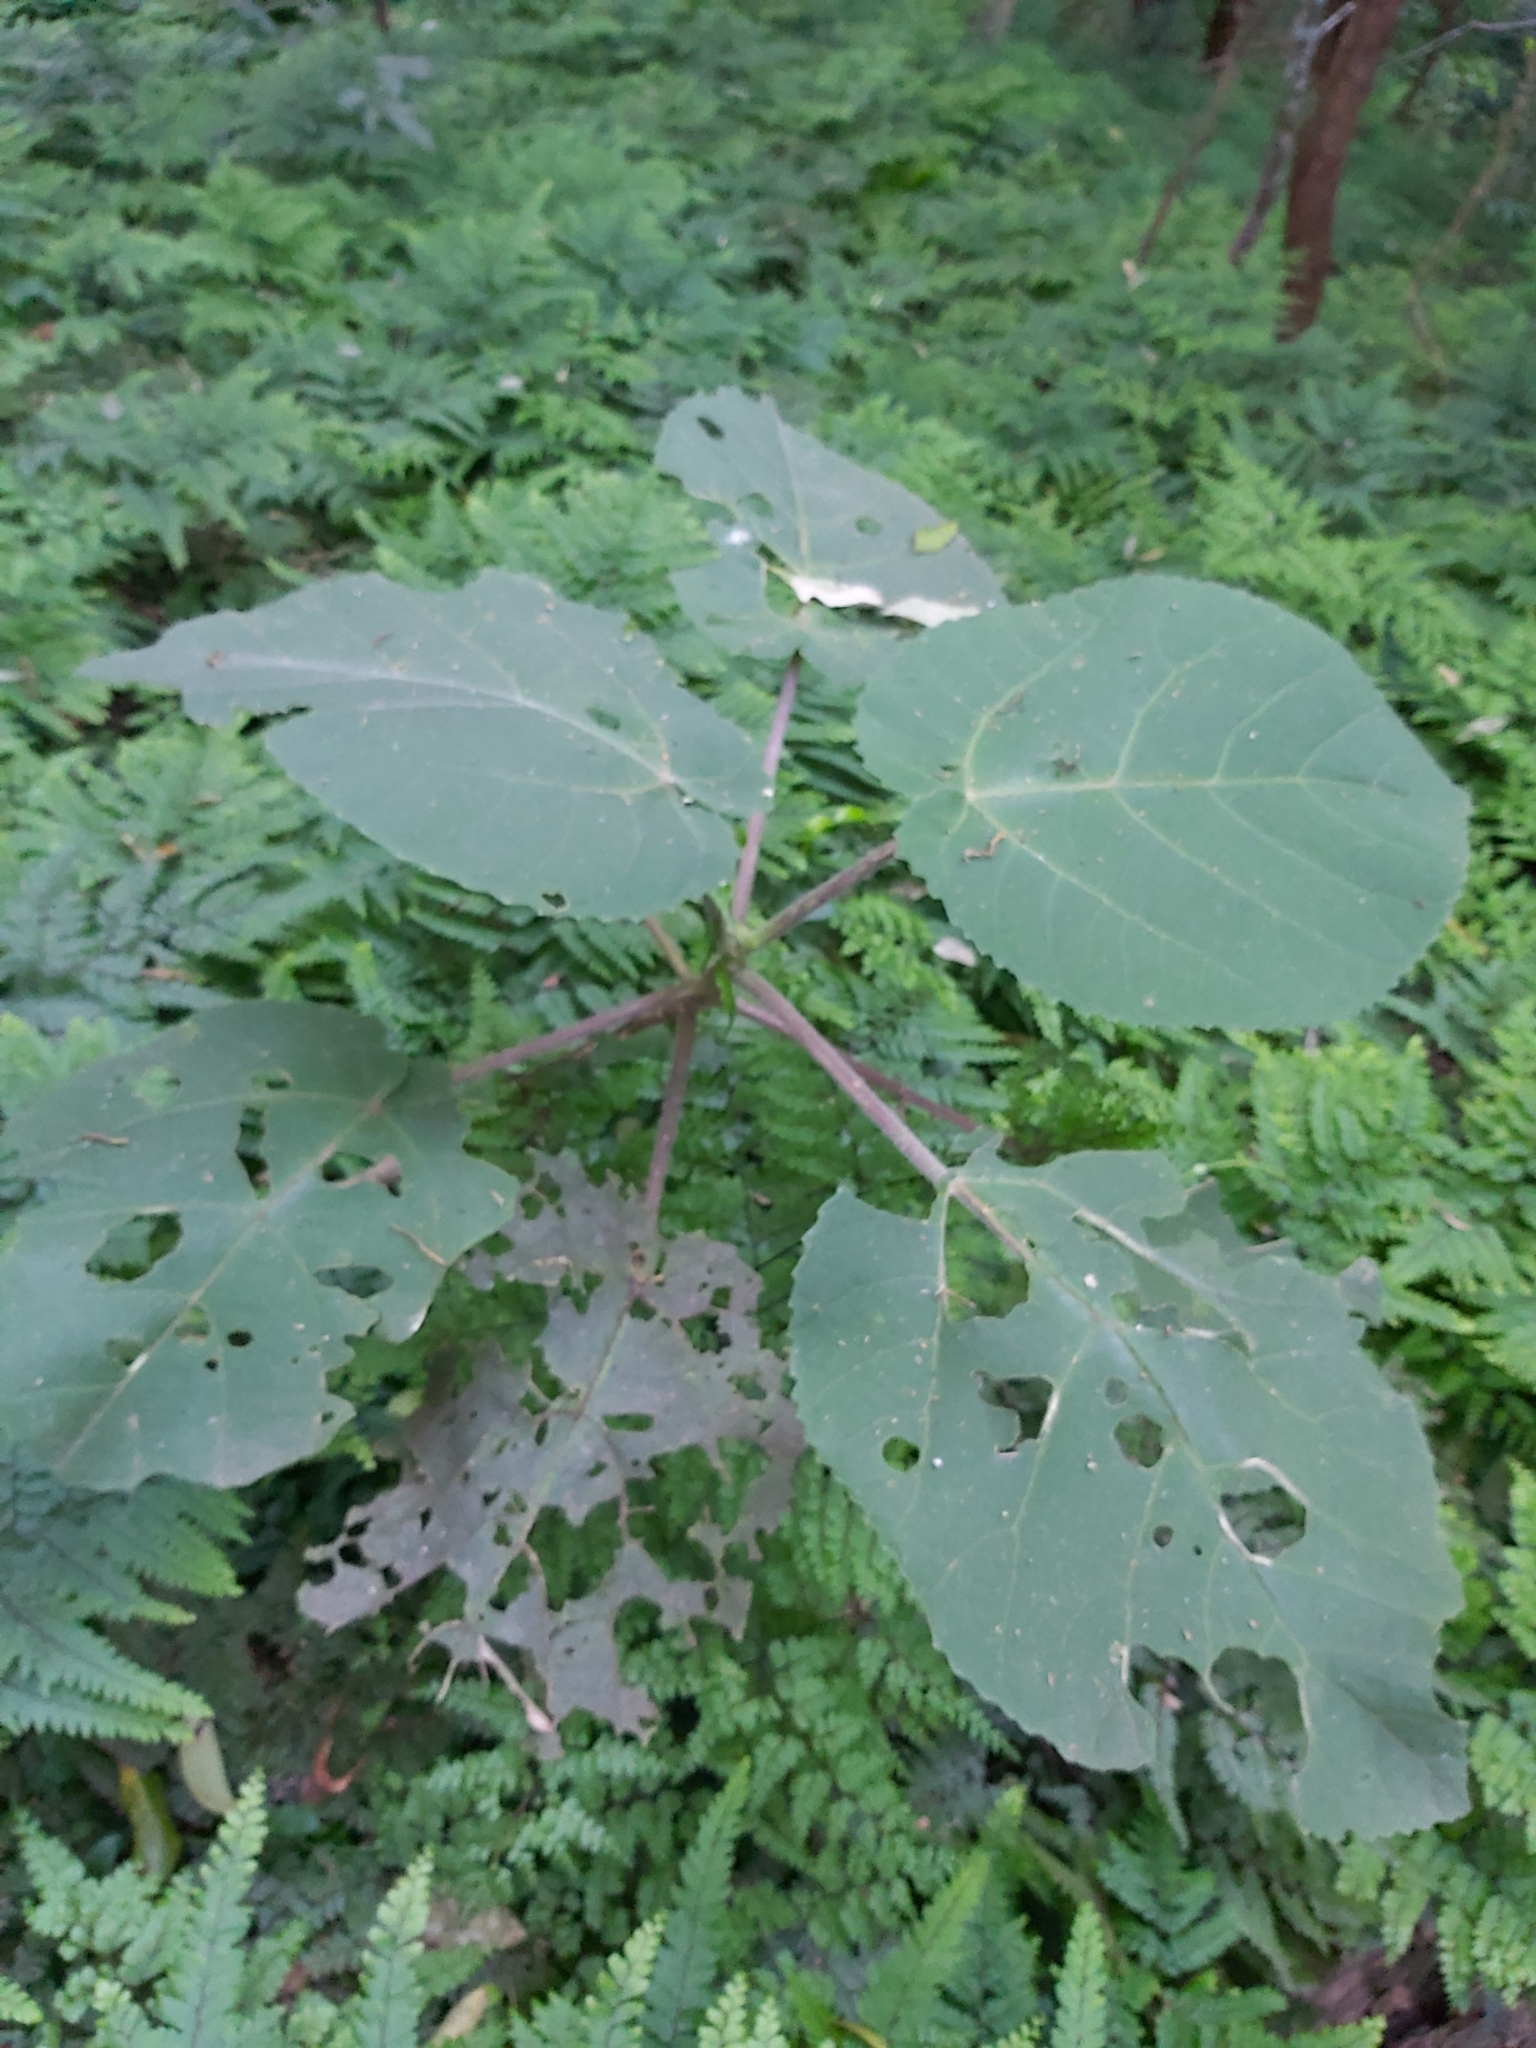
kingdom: Plantae
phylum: Tracheophyta
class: Magnoliopsida
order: Rosales
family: Urticaceae
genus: Dendrocnide
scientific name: Dendrocnide excelsa
